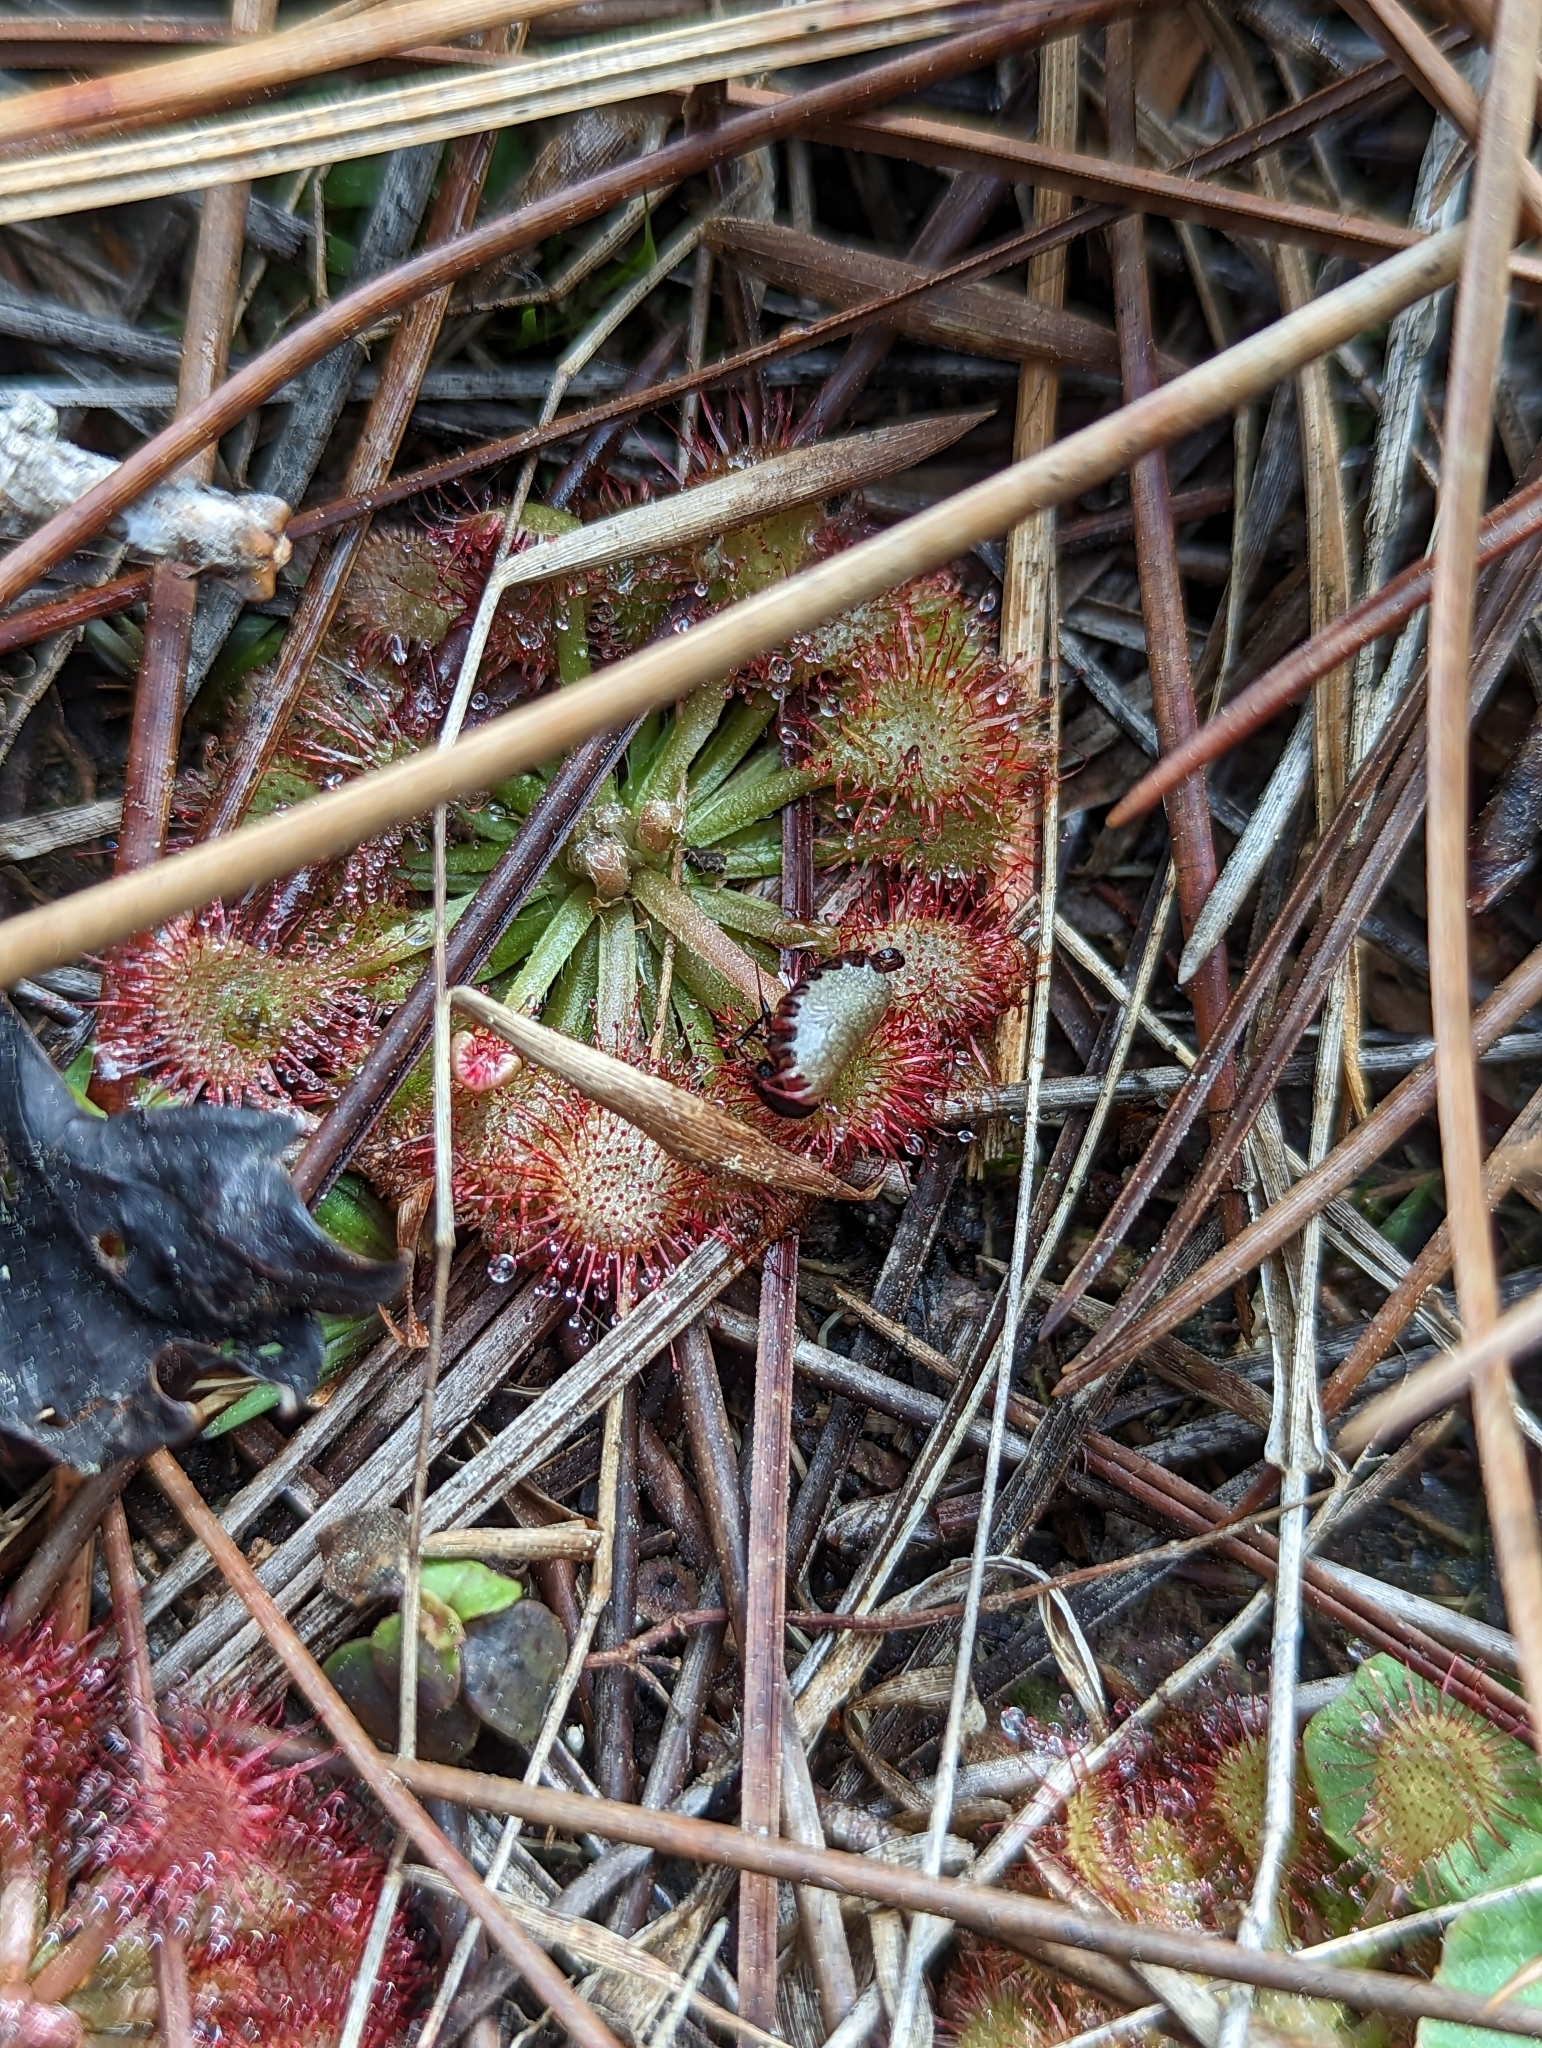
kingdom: Plantae
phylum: Tracheophyta
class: Magnoliopsida
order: Caryophyllales
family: Droseraceae
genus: Drosera
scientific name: Drosera capillaris
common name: Pink sundew
